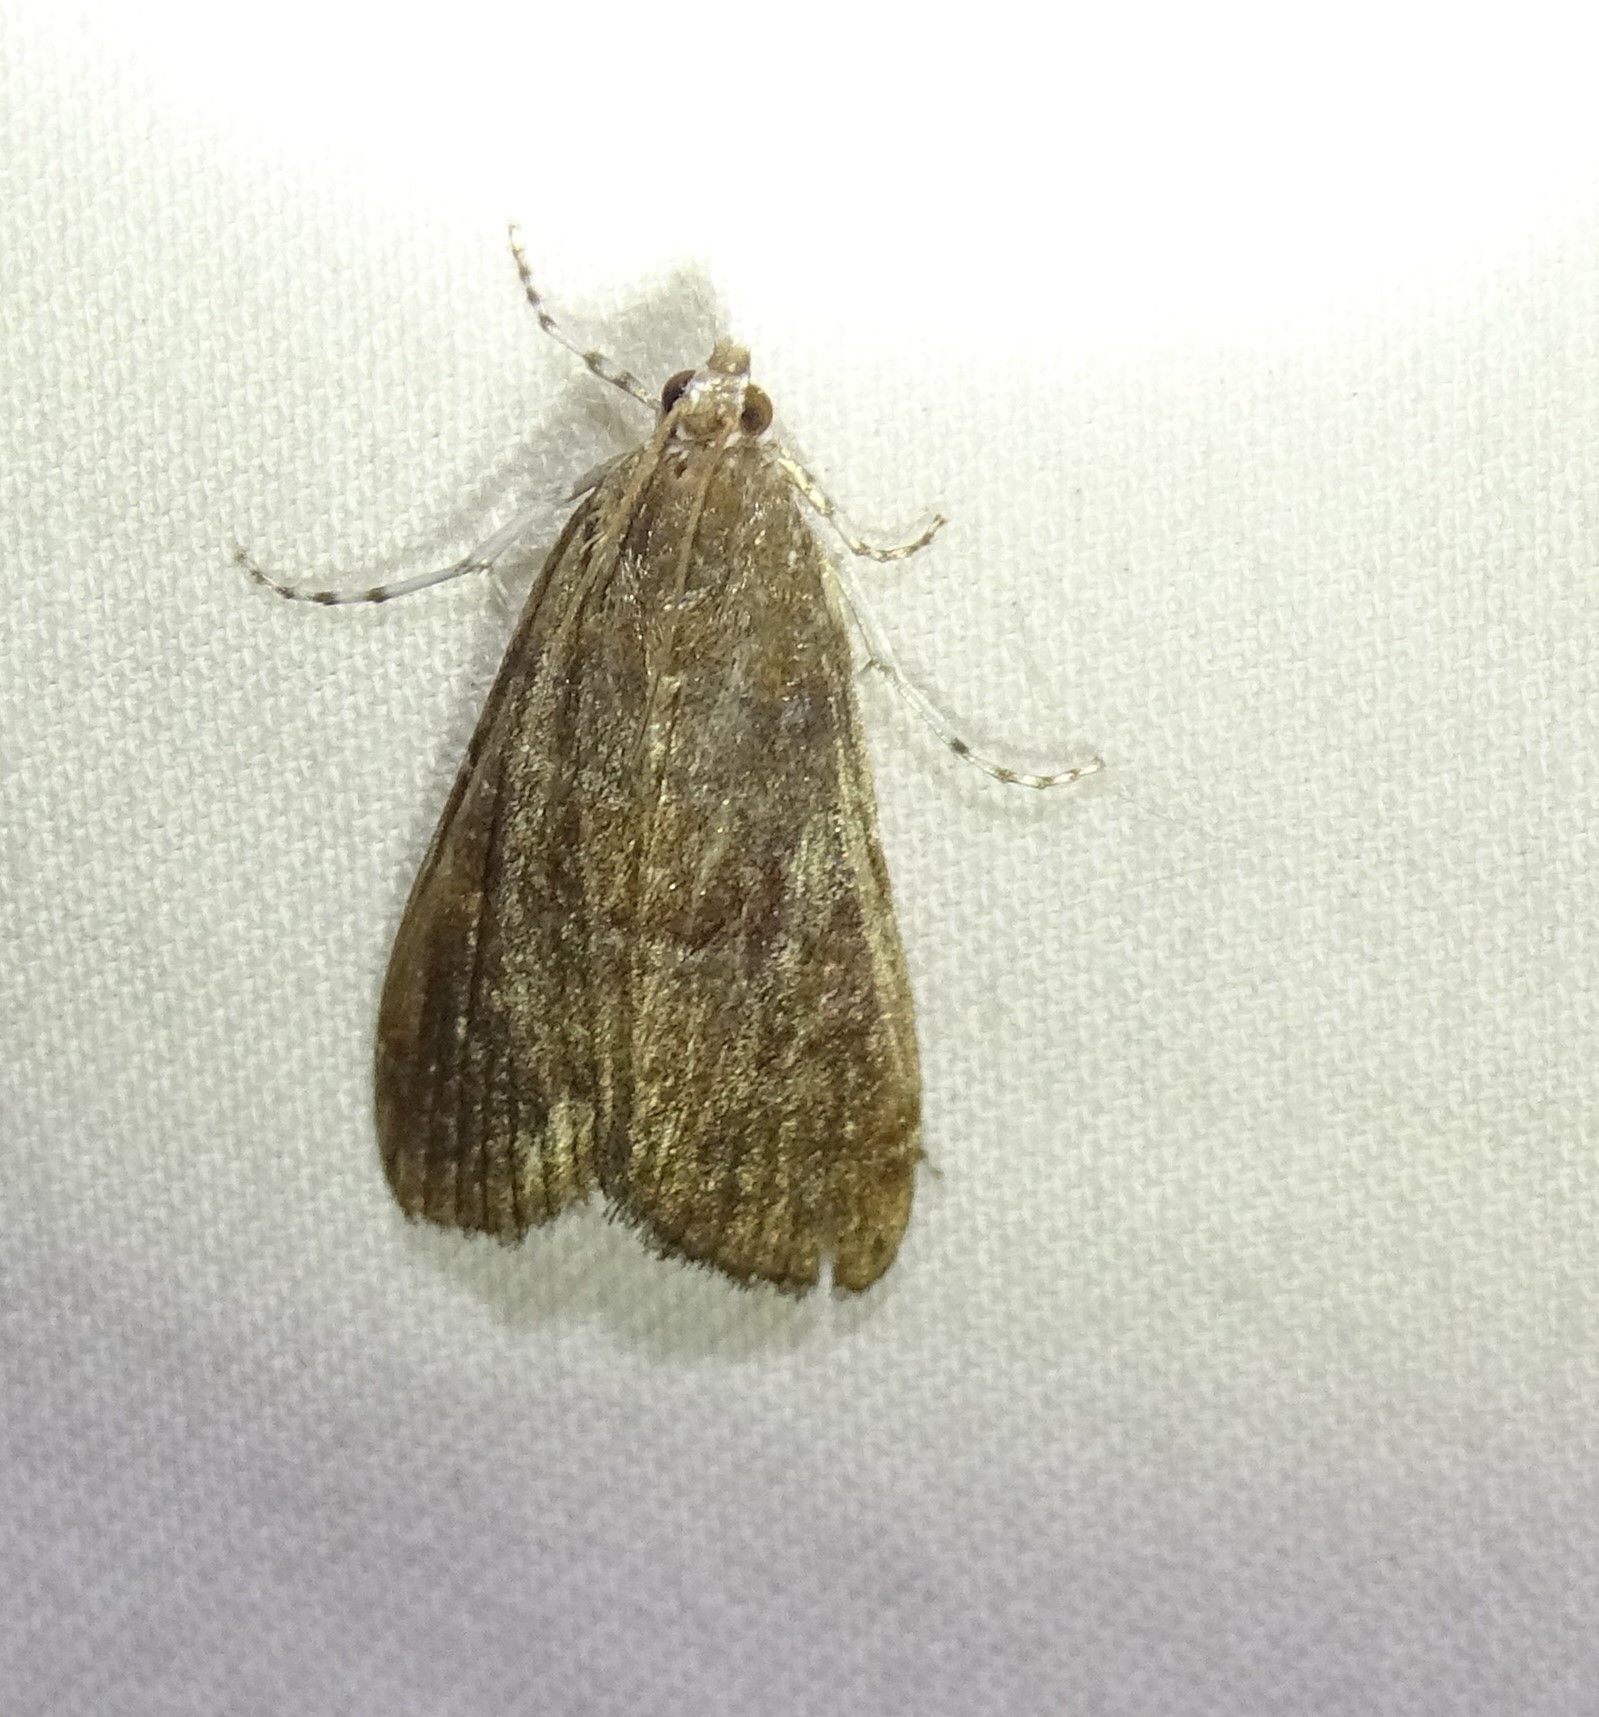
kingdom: Animalia
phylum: Arthropoda
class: Insecta
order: Lepidoptera
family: Crambidae
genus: Elophila
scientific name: Elophila gyralis
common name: Waterlily borer moth
